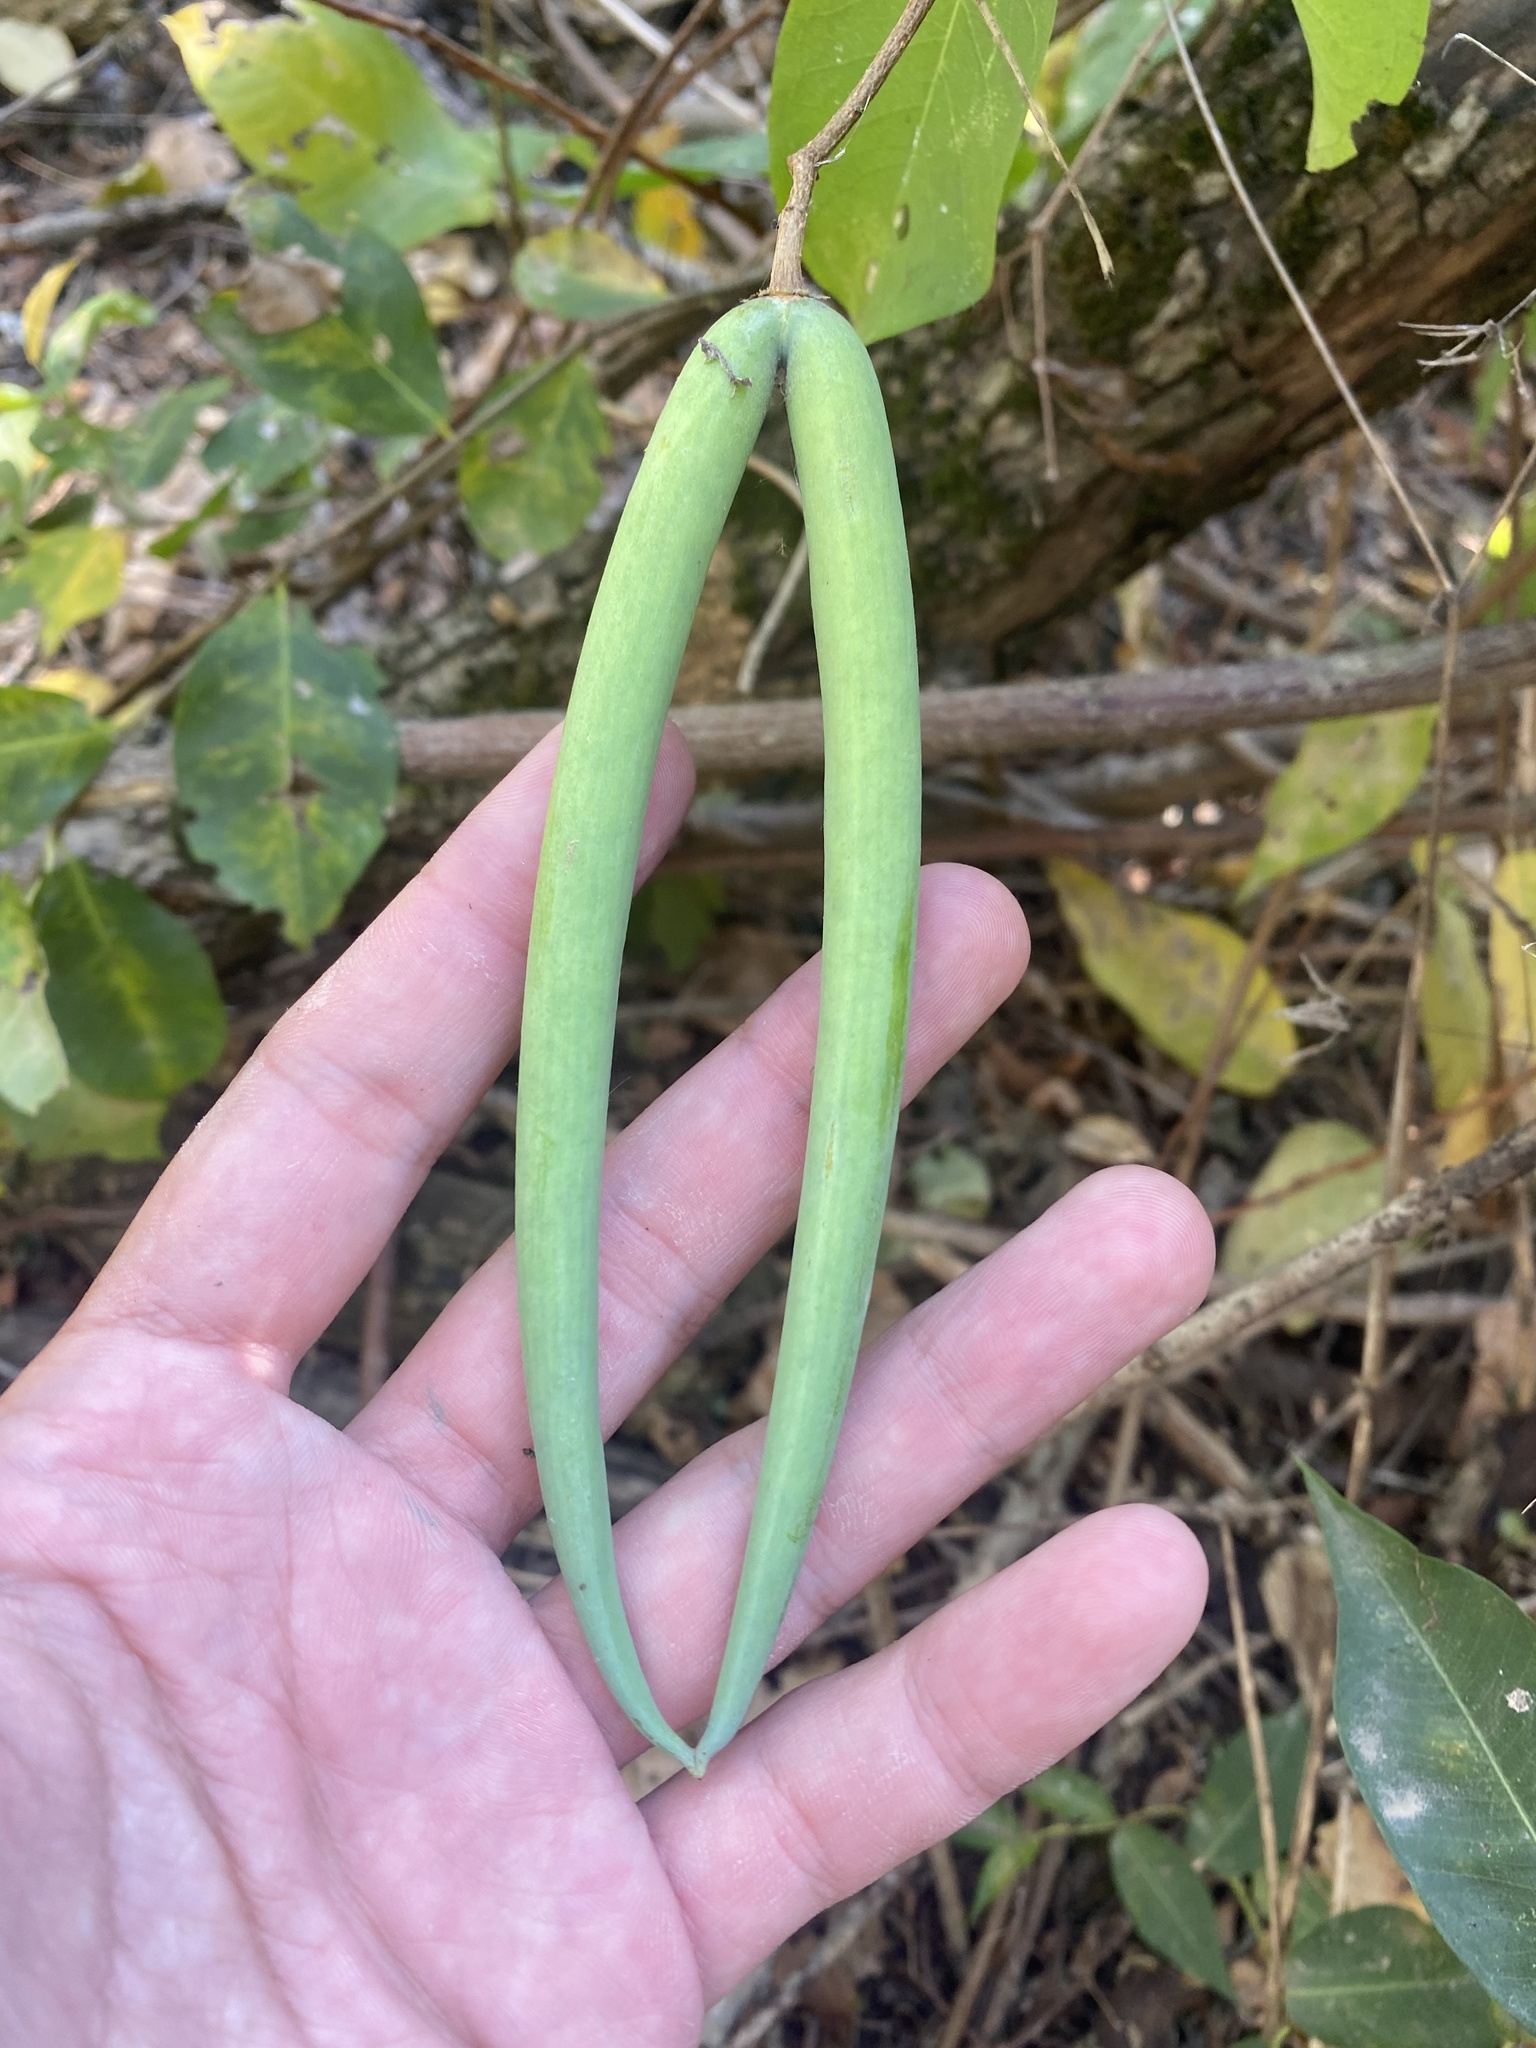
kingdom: Plantae
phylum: Tracheophyta
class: Magnoliopsida
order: Gentianales
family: Apocynaceae
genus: Periploca
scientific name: Periploca graeca
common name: Silkvine
